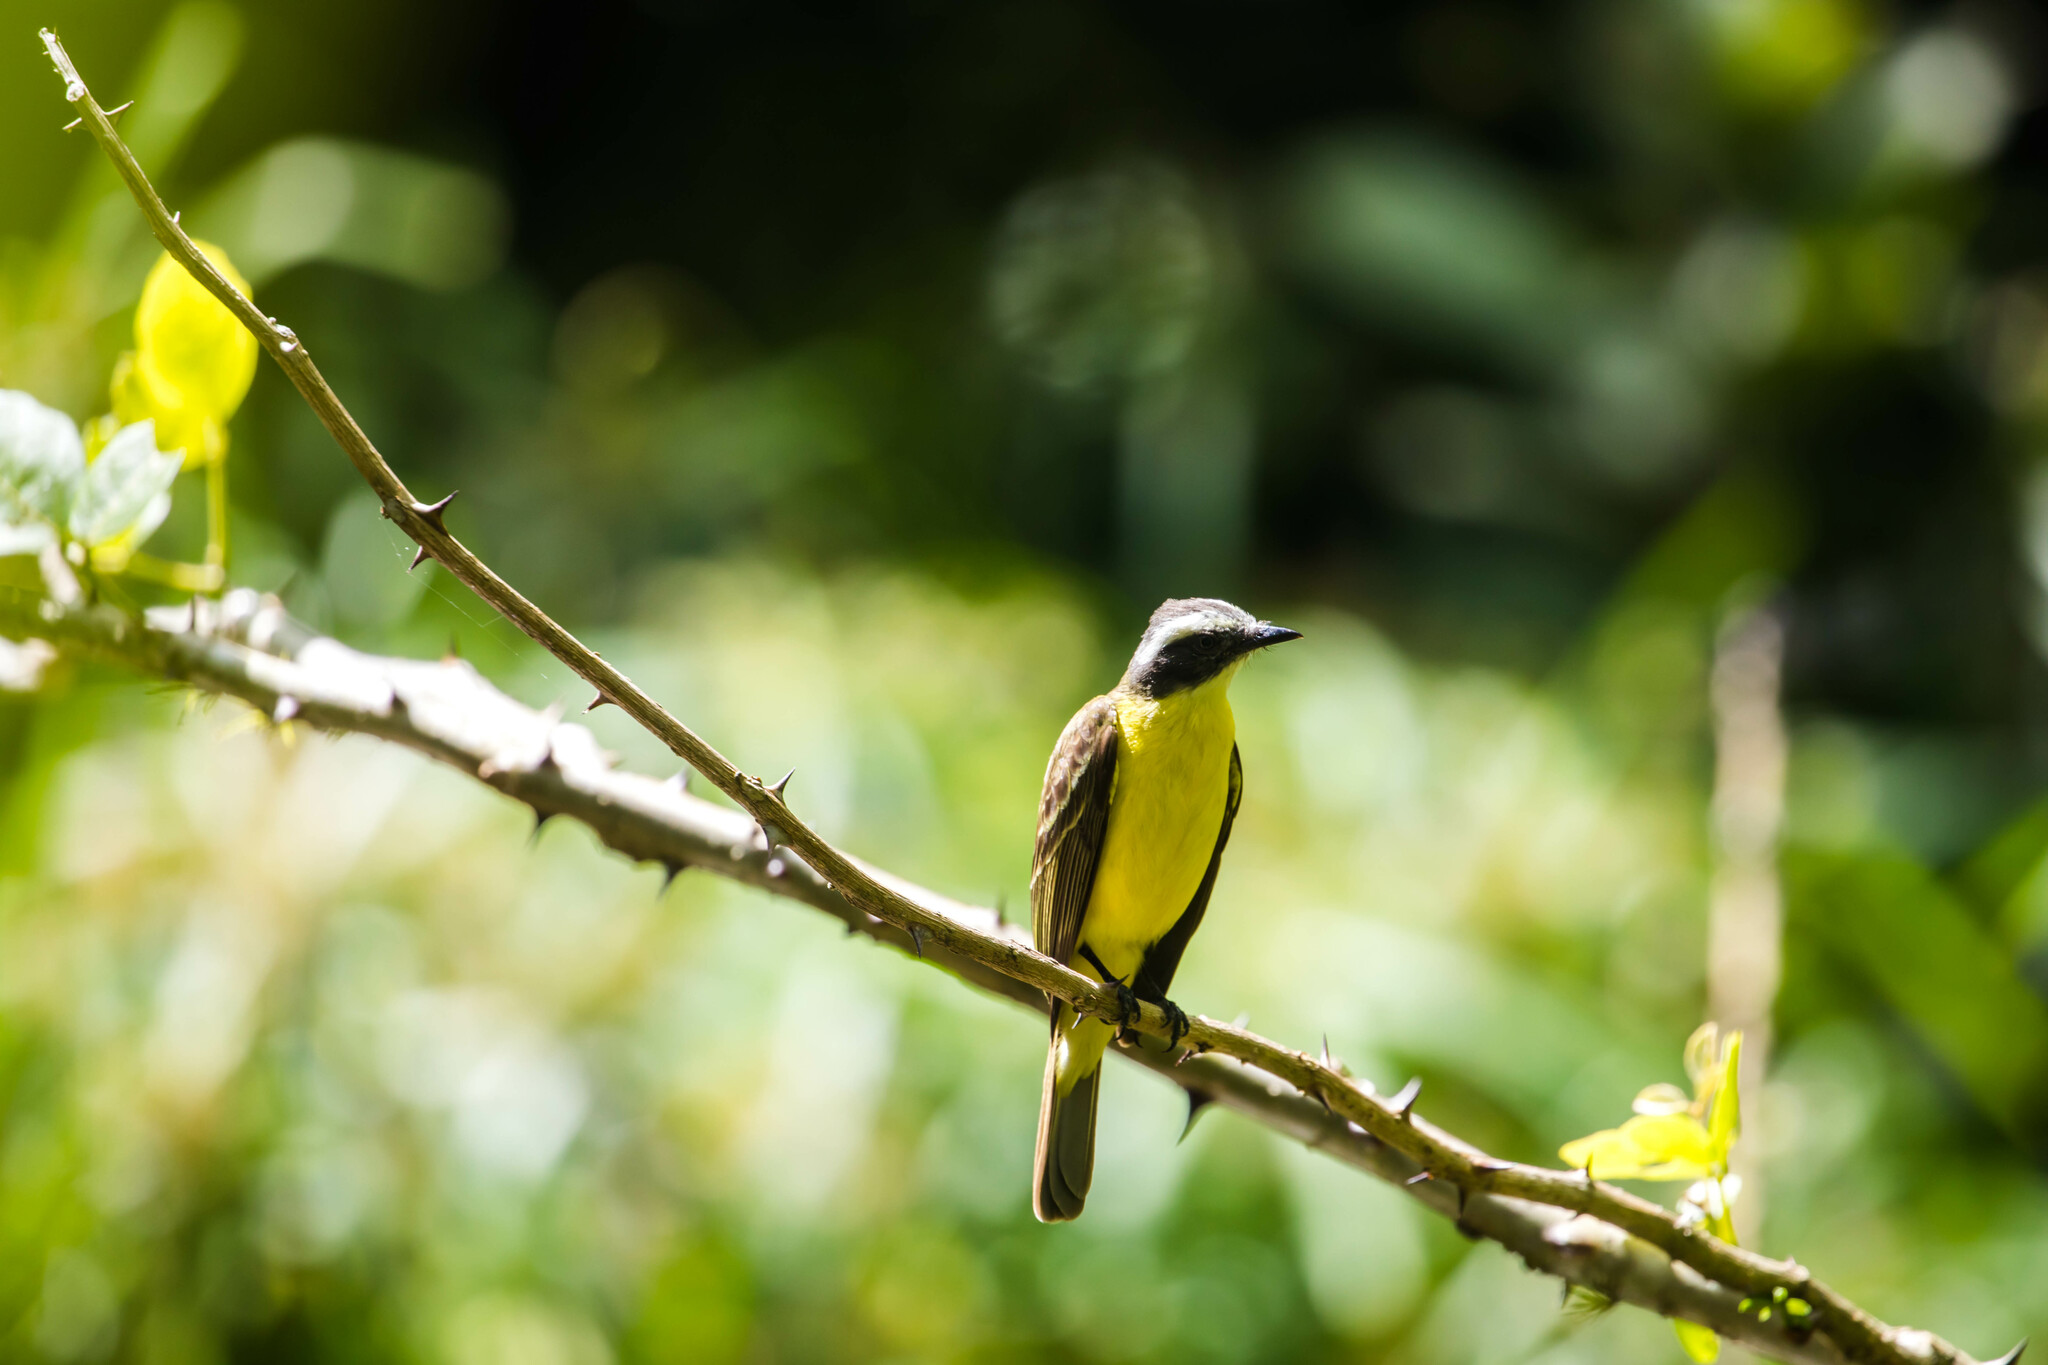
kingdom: Animalia
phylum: Chordata
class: Aves
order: Passeriformes
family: Tyrannidae
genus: Myiozetetes
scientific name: Myiozetetes similis
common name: Social flycatcher
